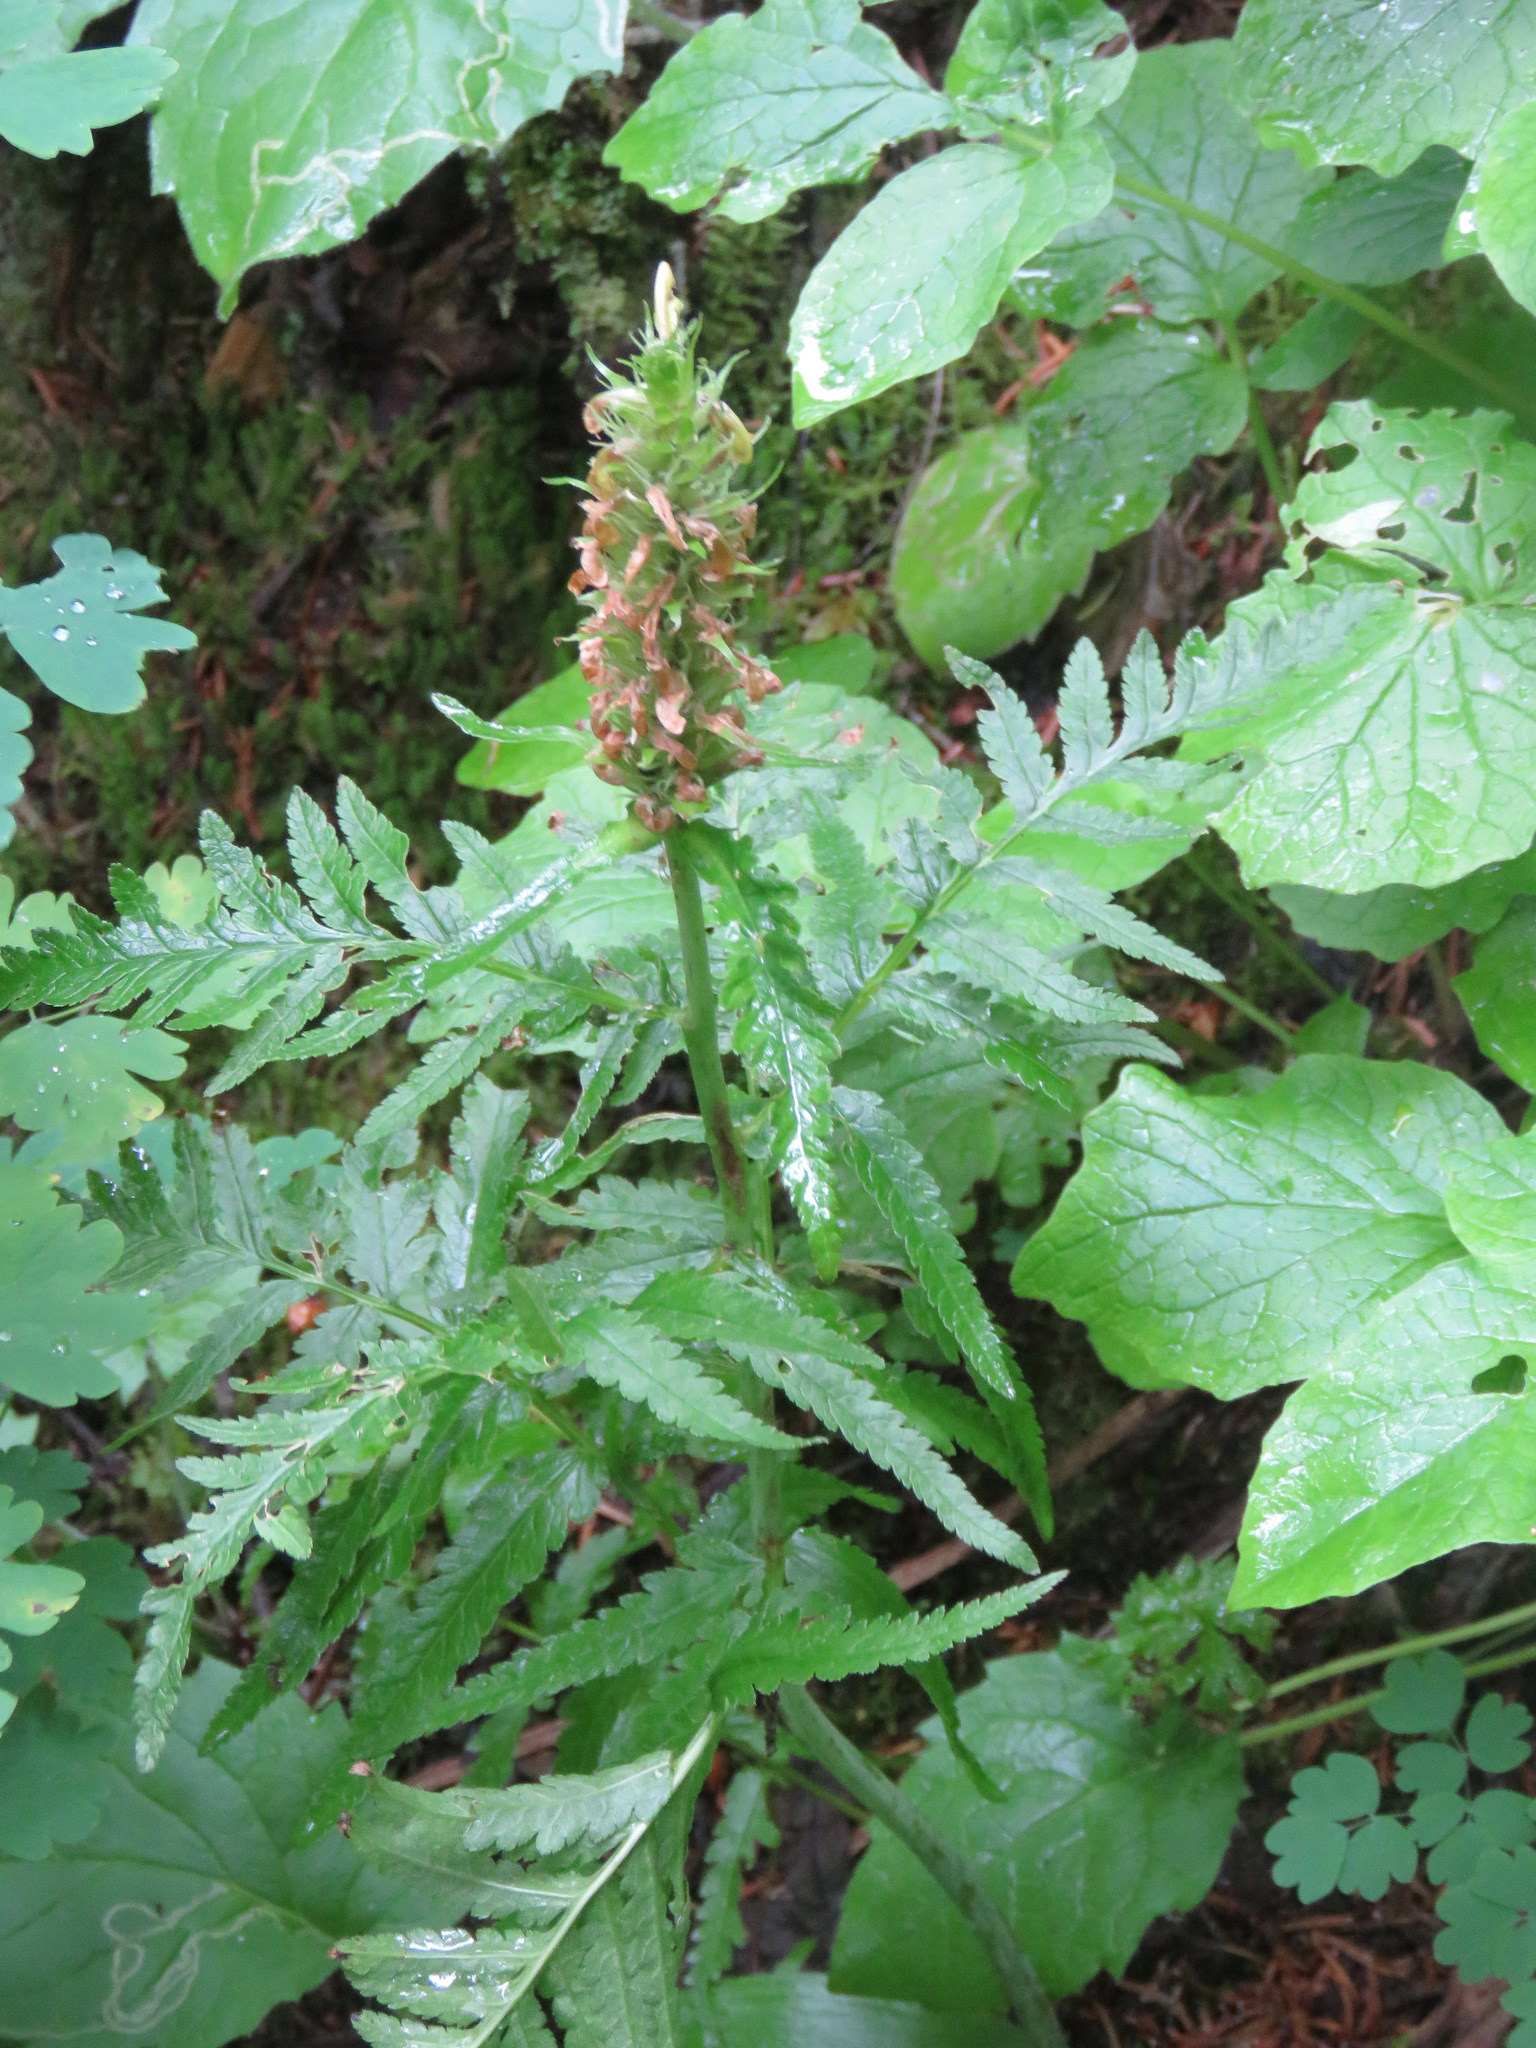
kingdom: Plantae
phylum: Tracheophyta
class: Magnoliopsida
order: Lamiales
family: Orobanchaceae
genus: Pedicularis
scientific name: Pedicularis bracteosa
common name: Bracted lousewort
